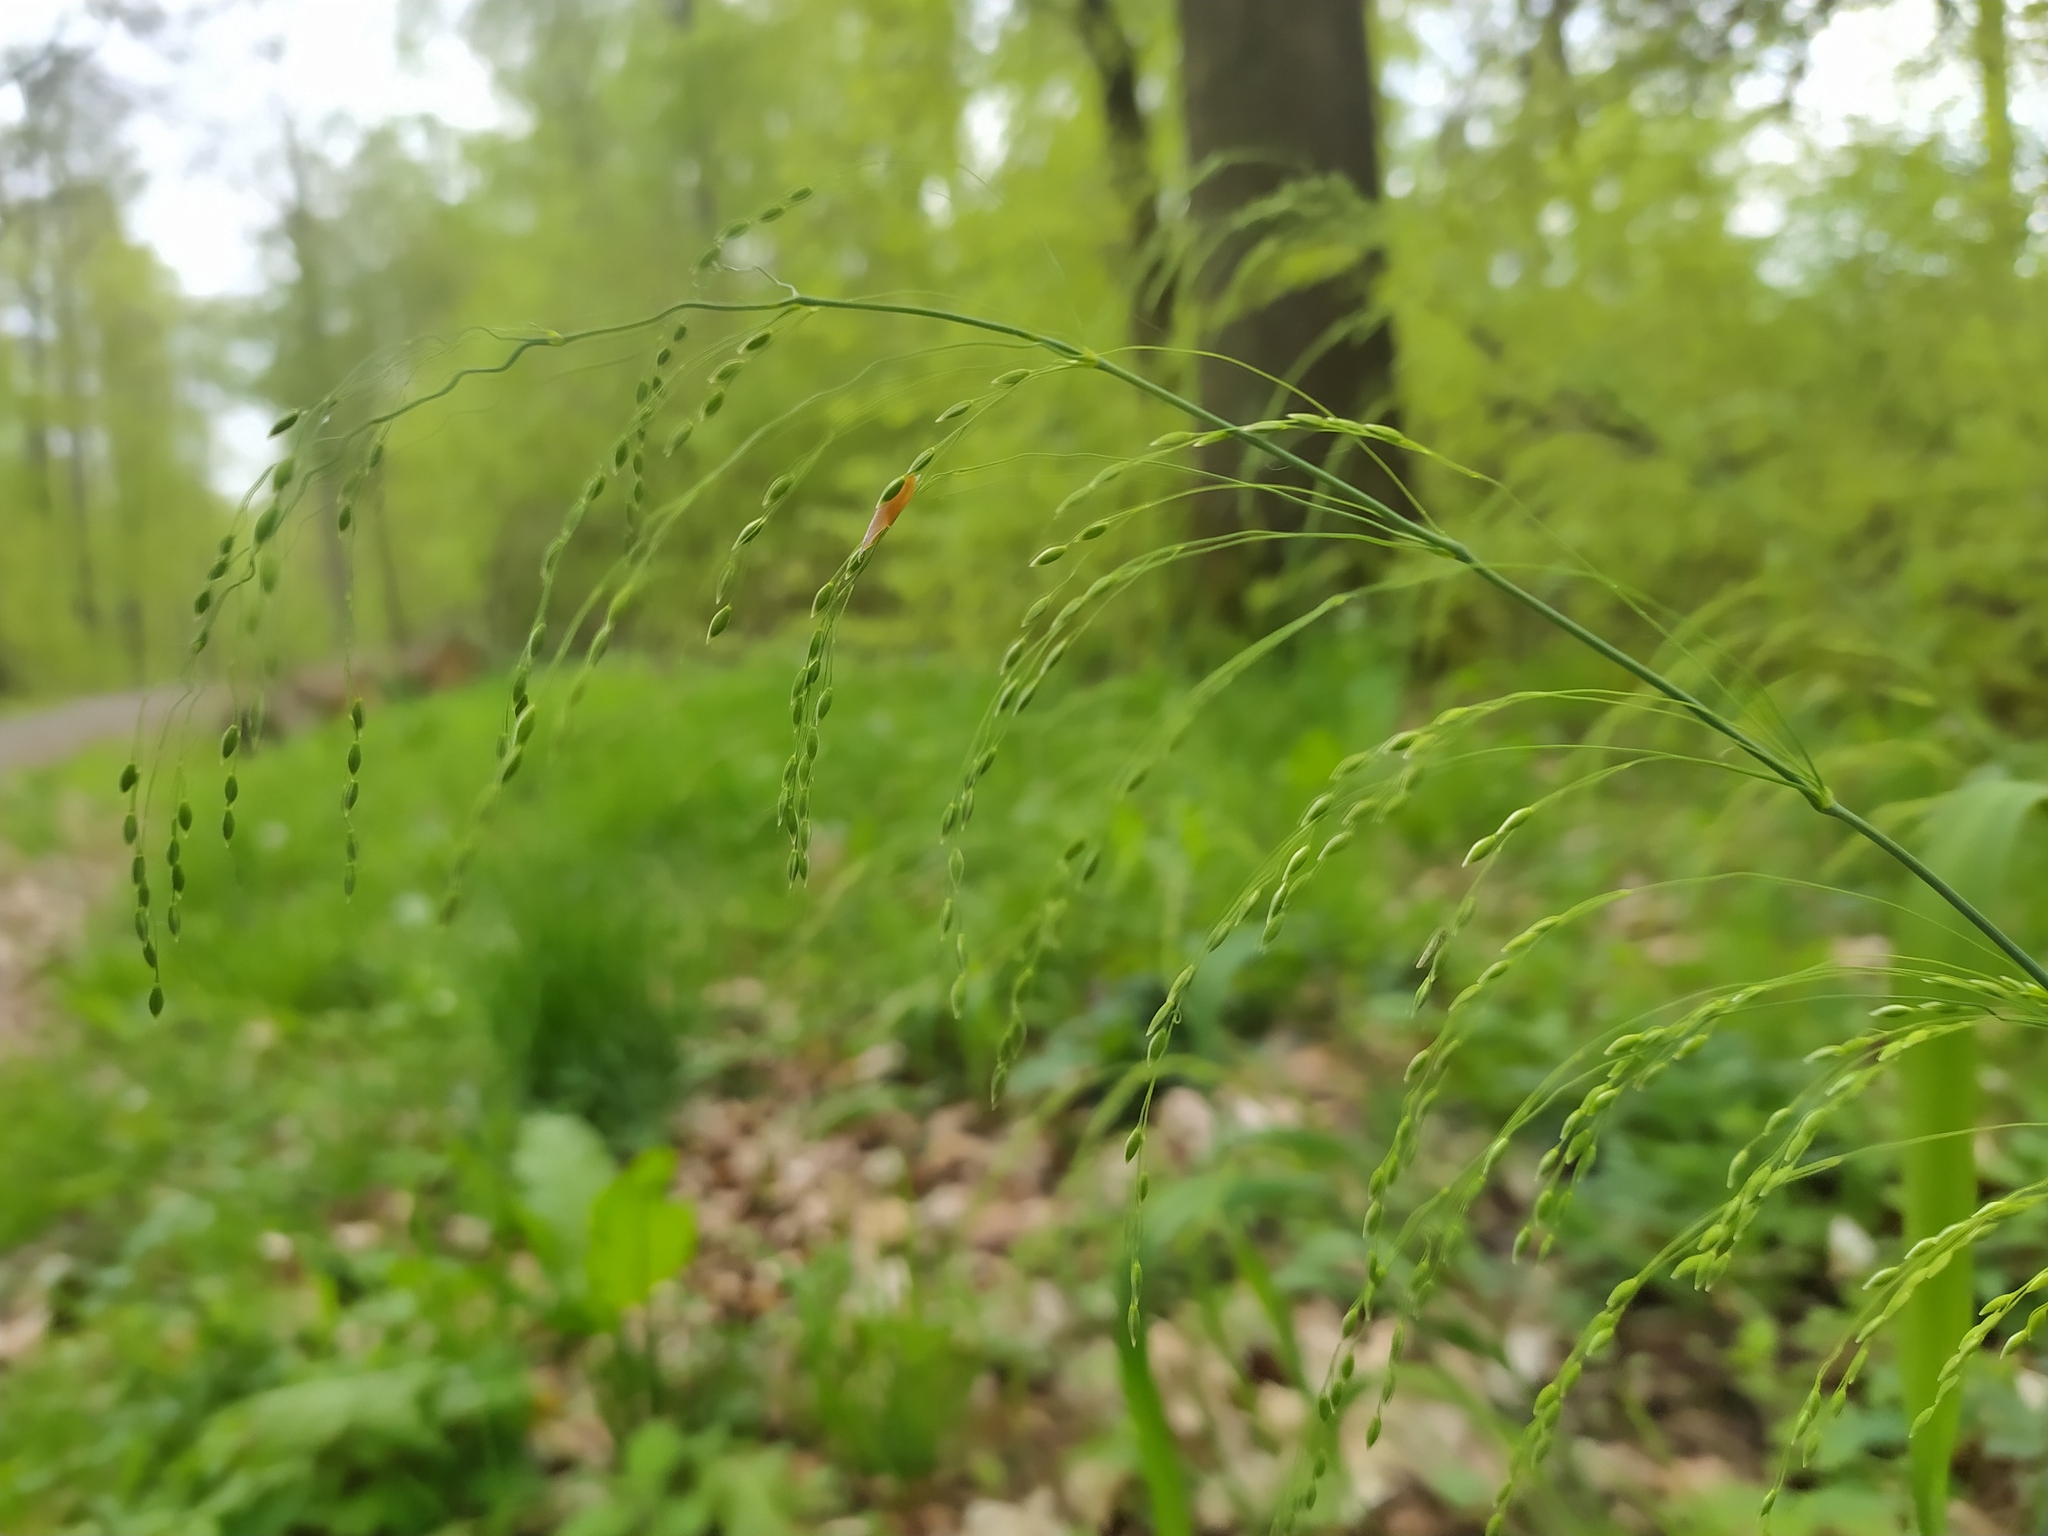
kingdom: Plantae
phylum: Tracheophyta
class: Liliopsida
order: Poales
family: Poaceae
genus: Milium
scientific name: Milium effusum
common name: Wood millet
